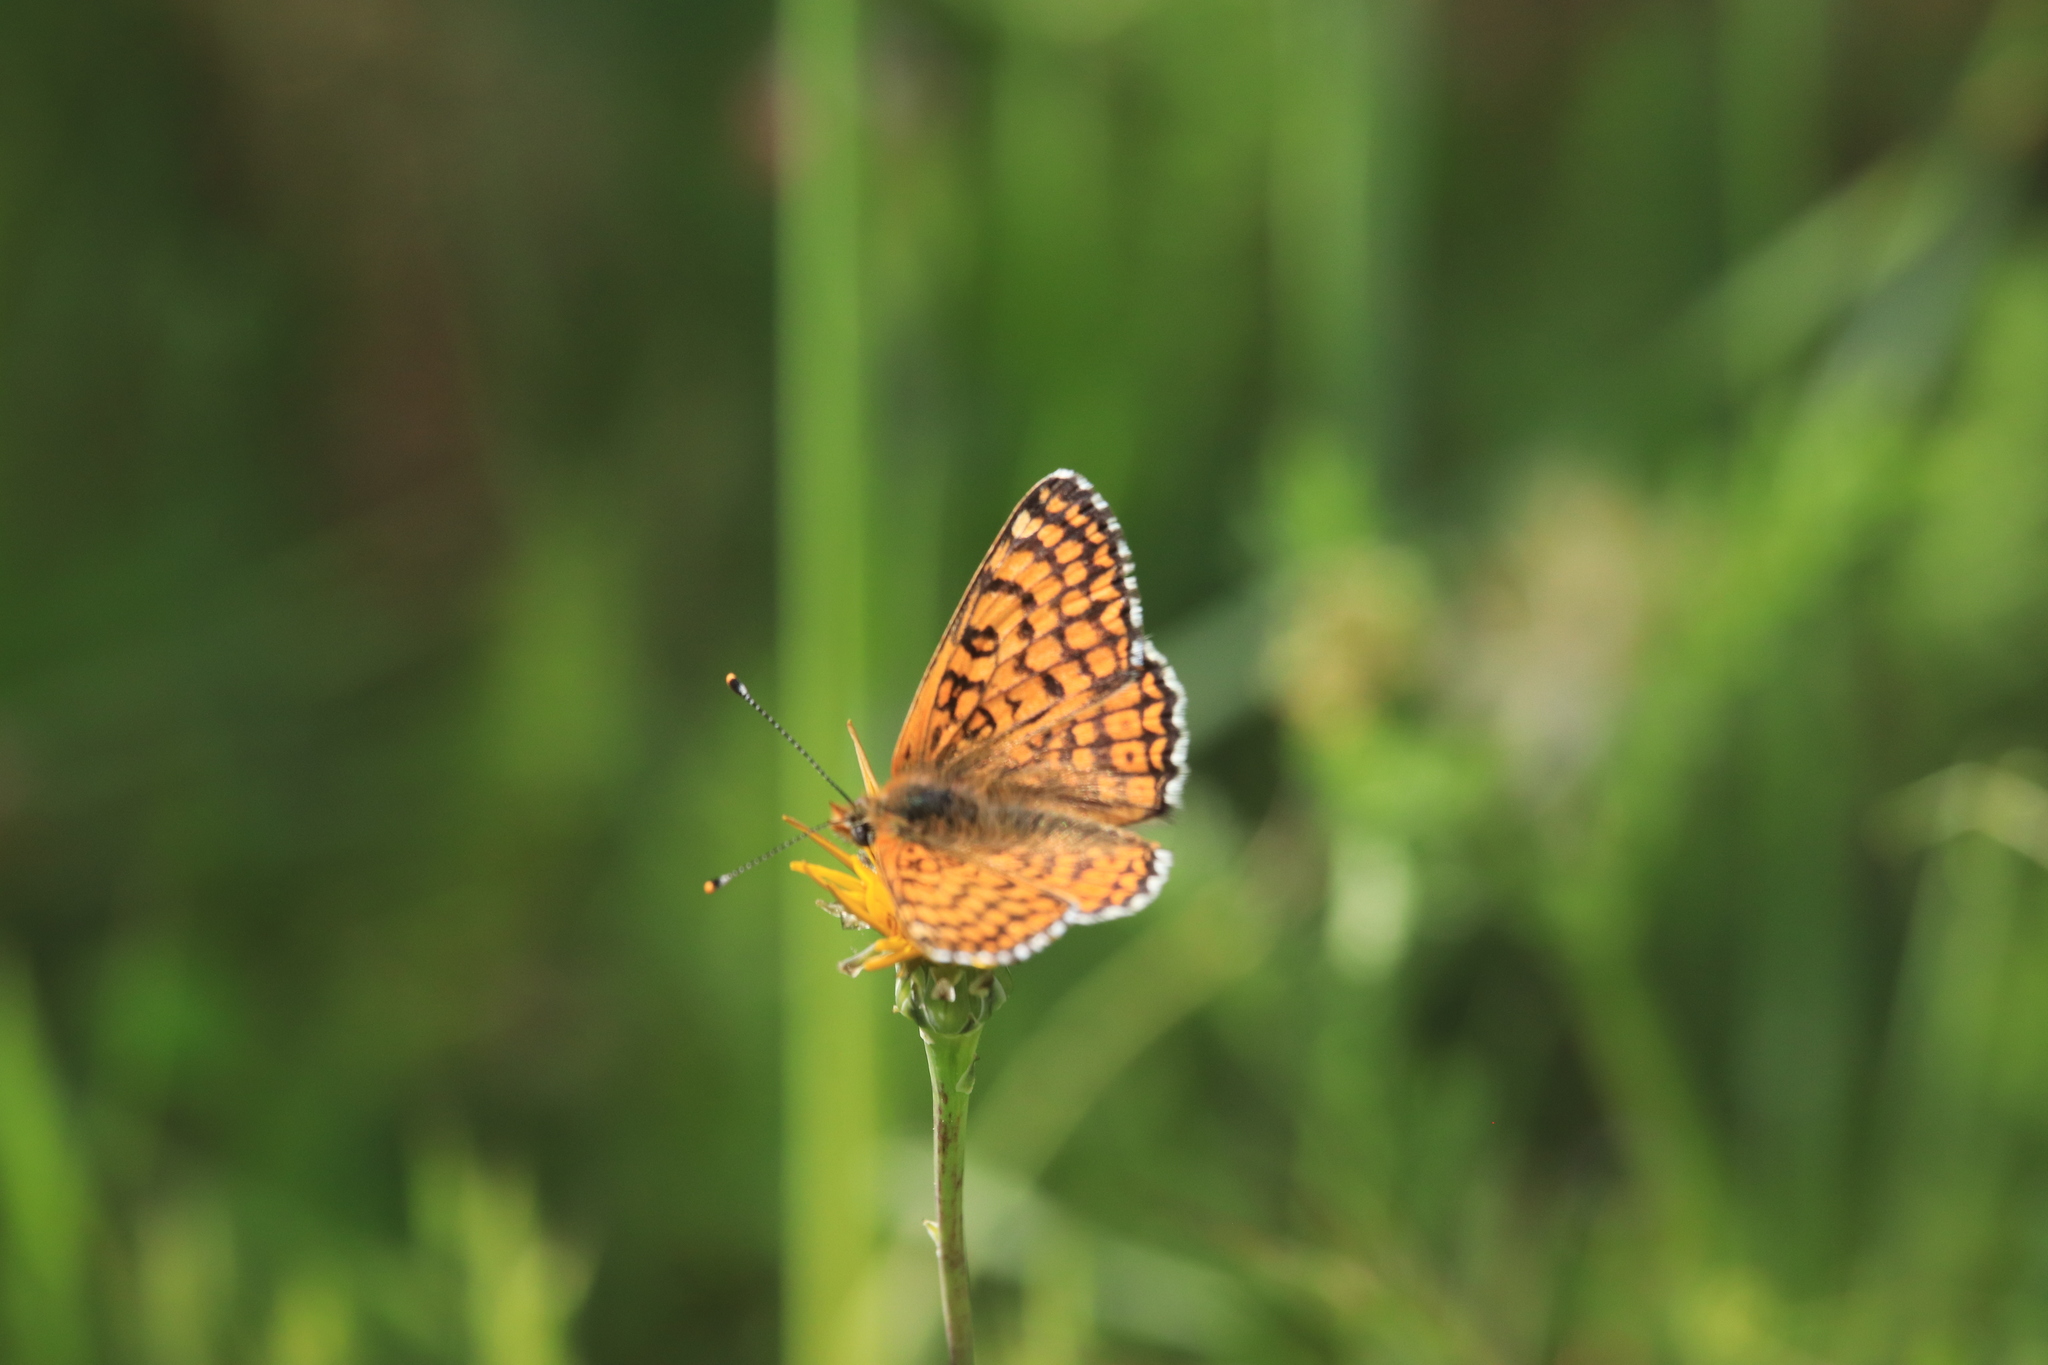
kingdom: Animalia
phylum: Arthropoda
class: Insecta
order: Lepidoptera
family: Nymphalidae
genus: Melitaea
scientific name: Melitaea cinxia
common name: Glanville fritillary
